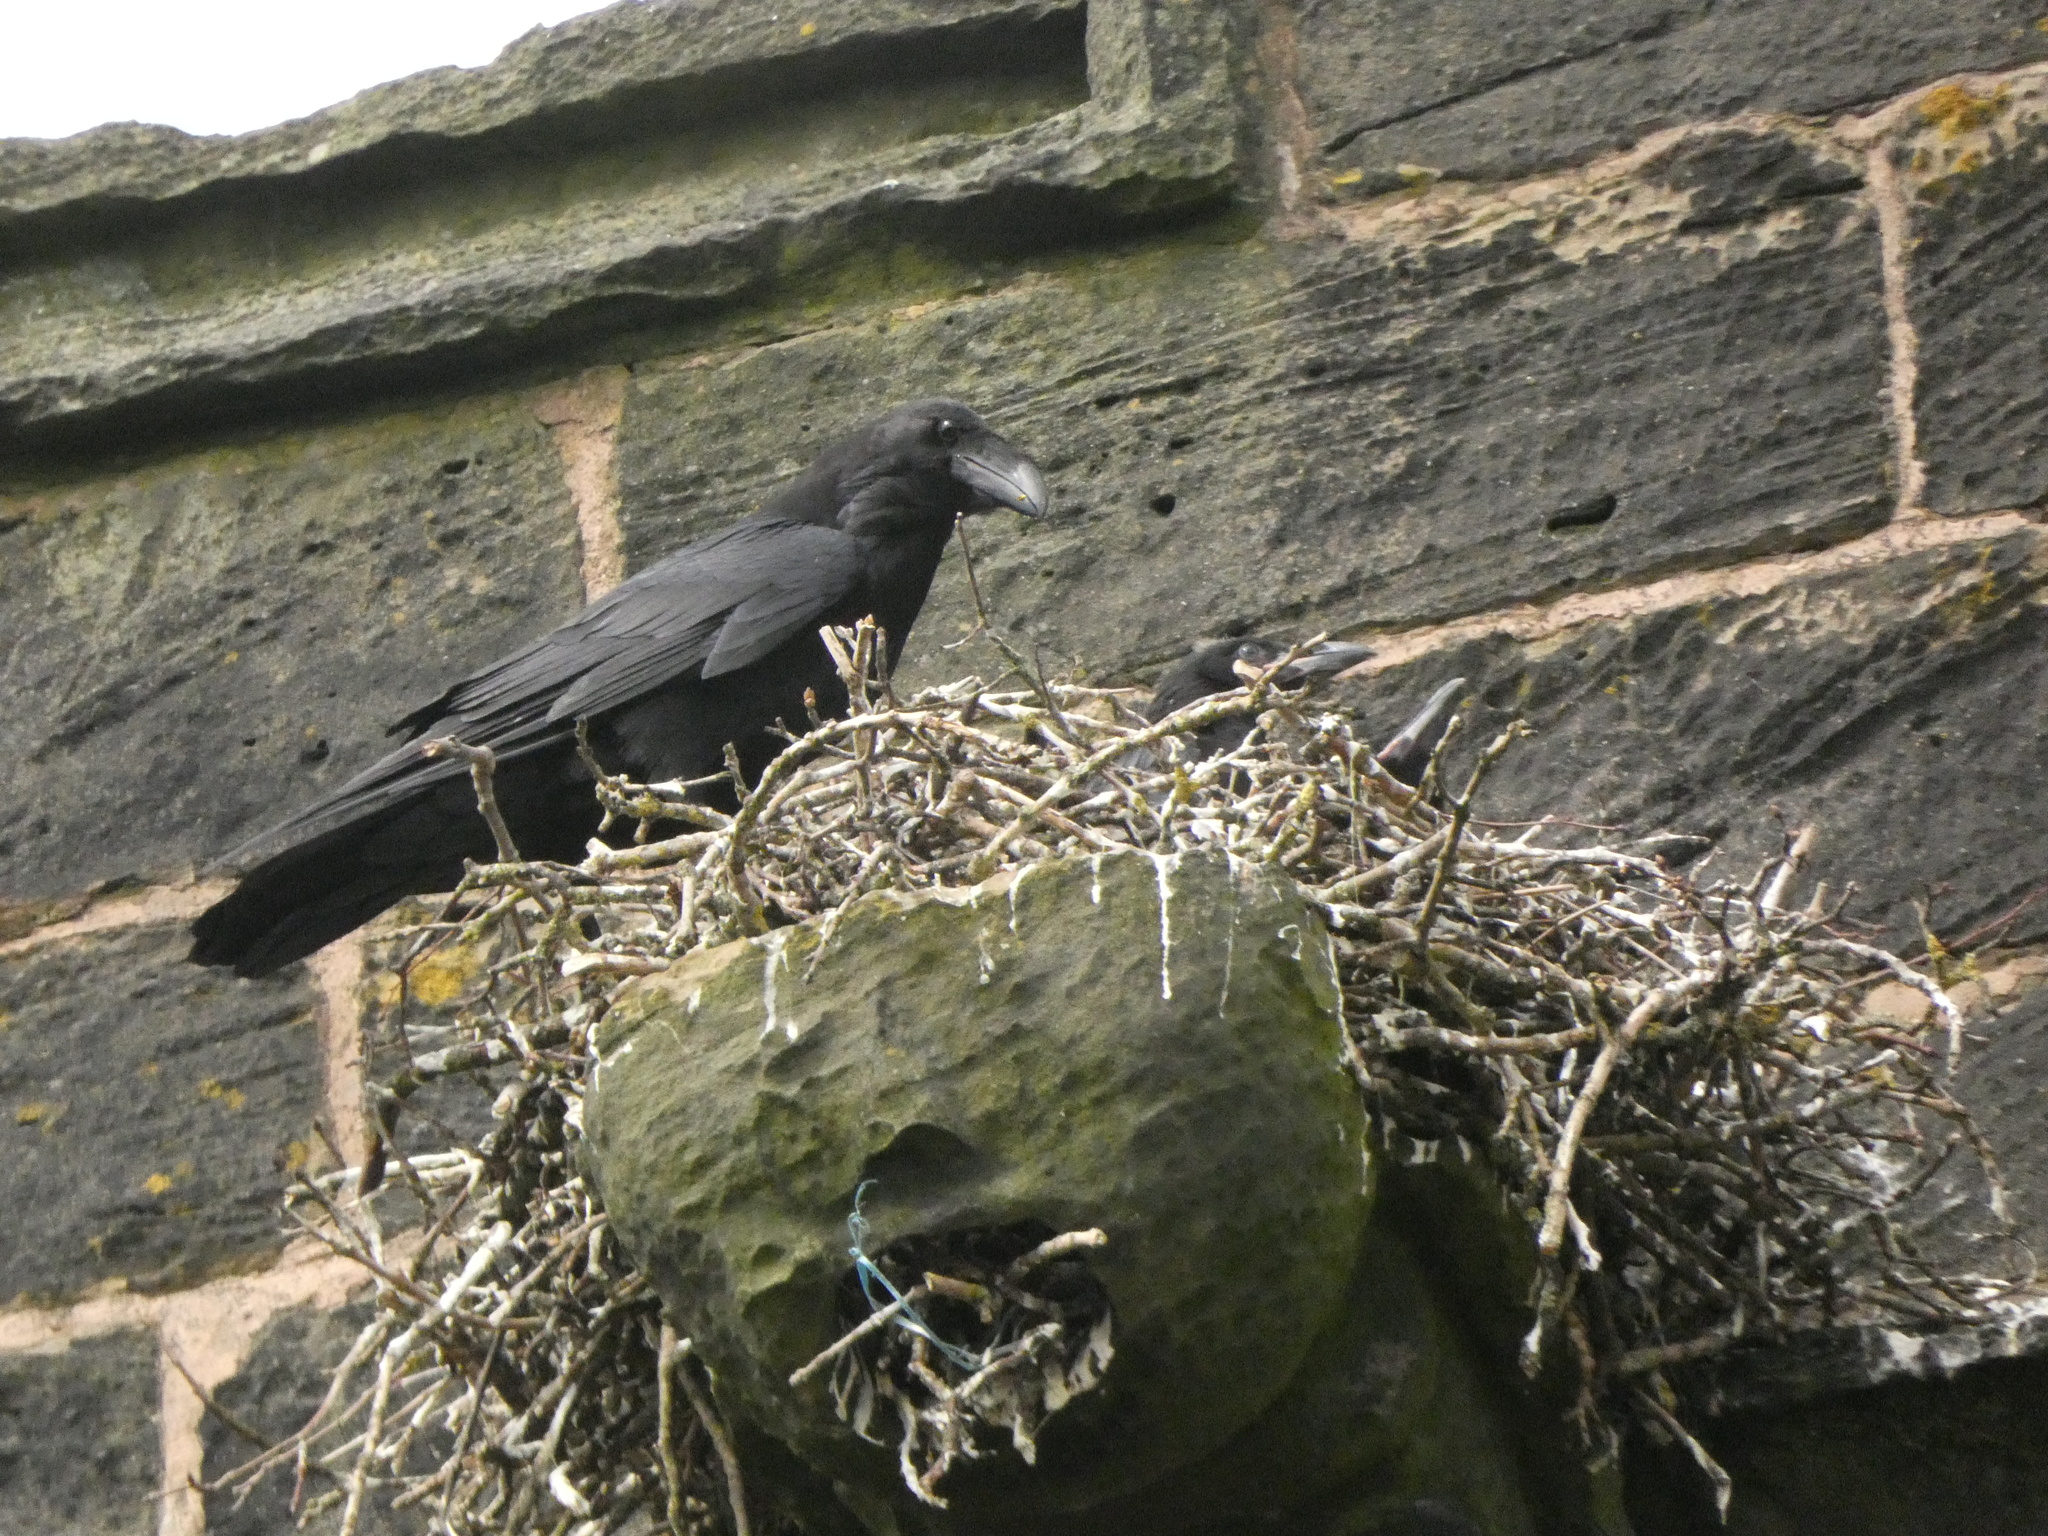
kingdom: Animalia
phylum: Chordata
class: Aves
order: Passeriformes
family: Corvidae
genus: Corvus
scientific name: Corvus corax
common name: Common raven
